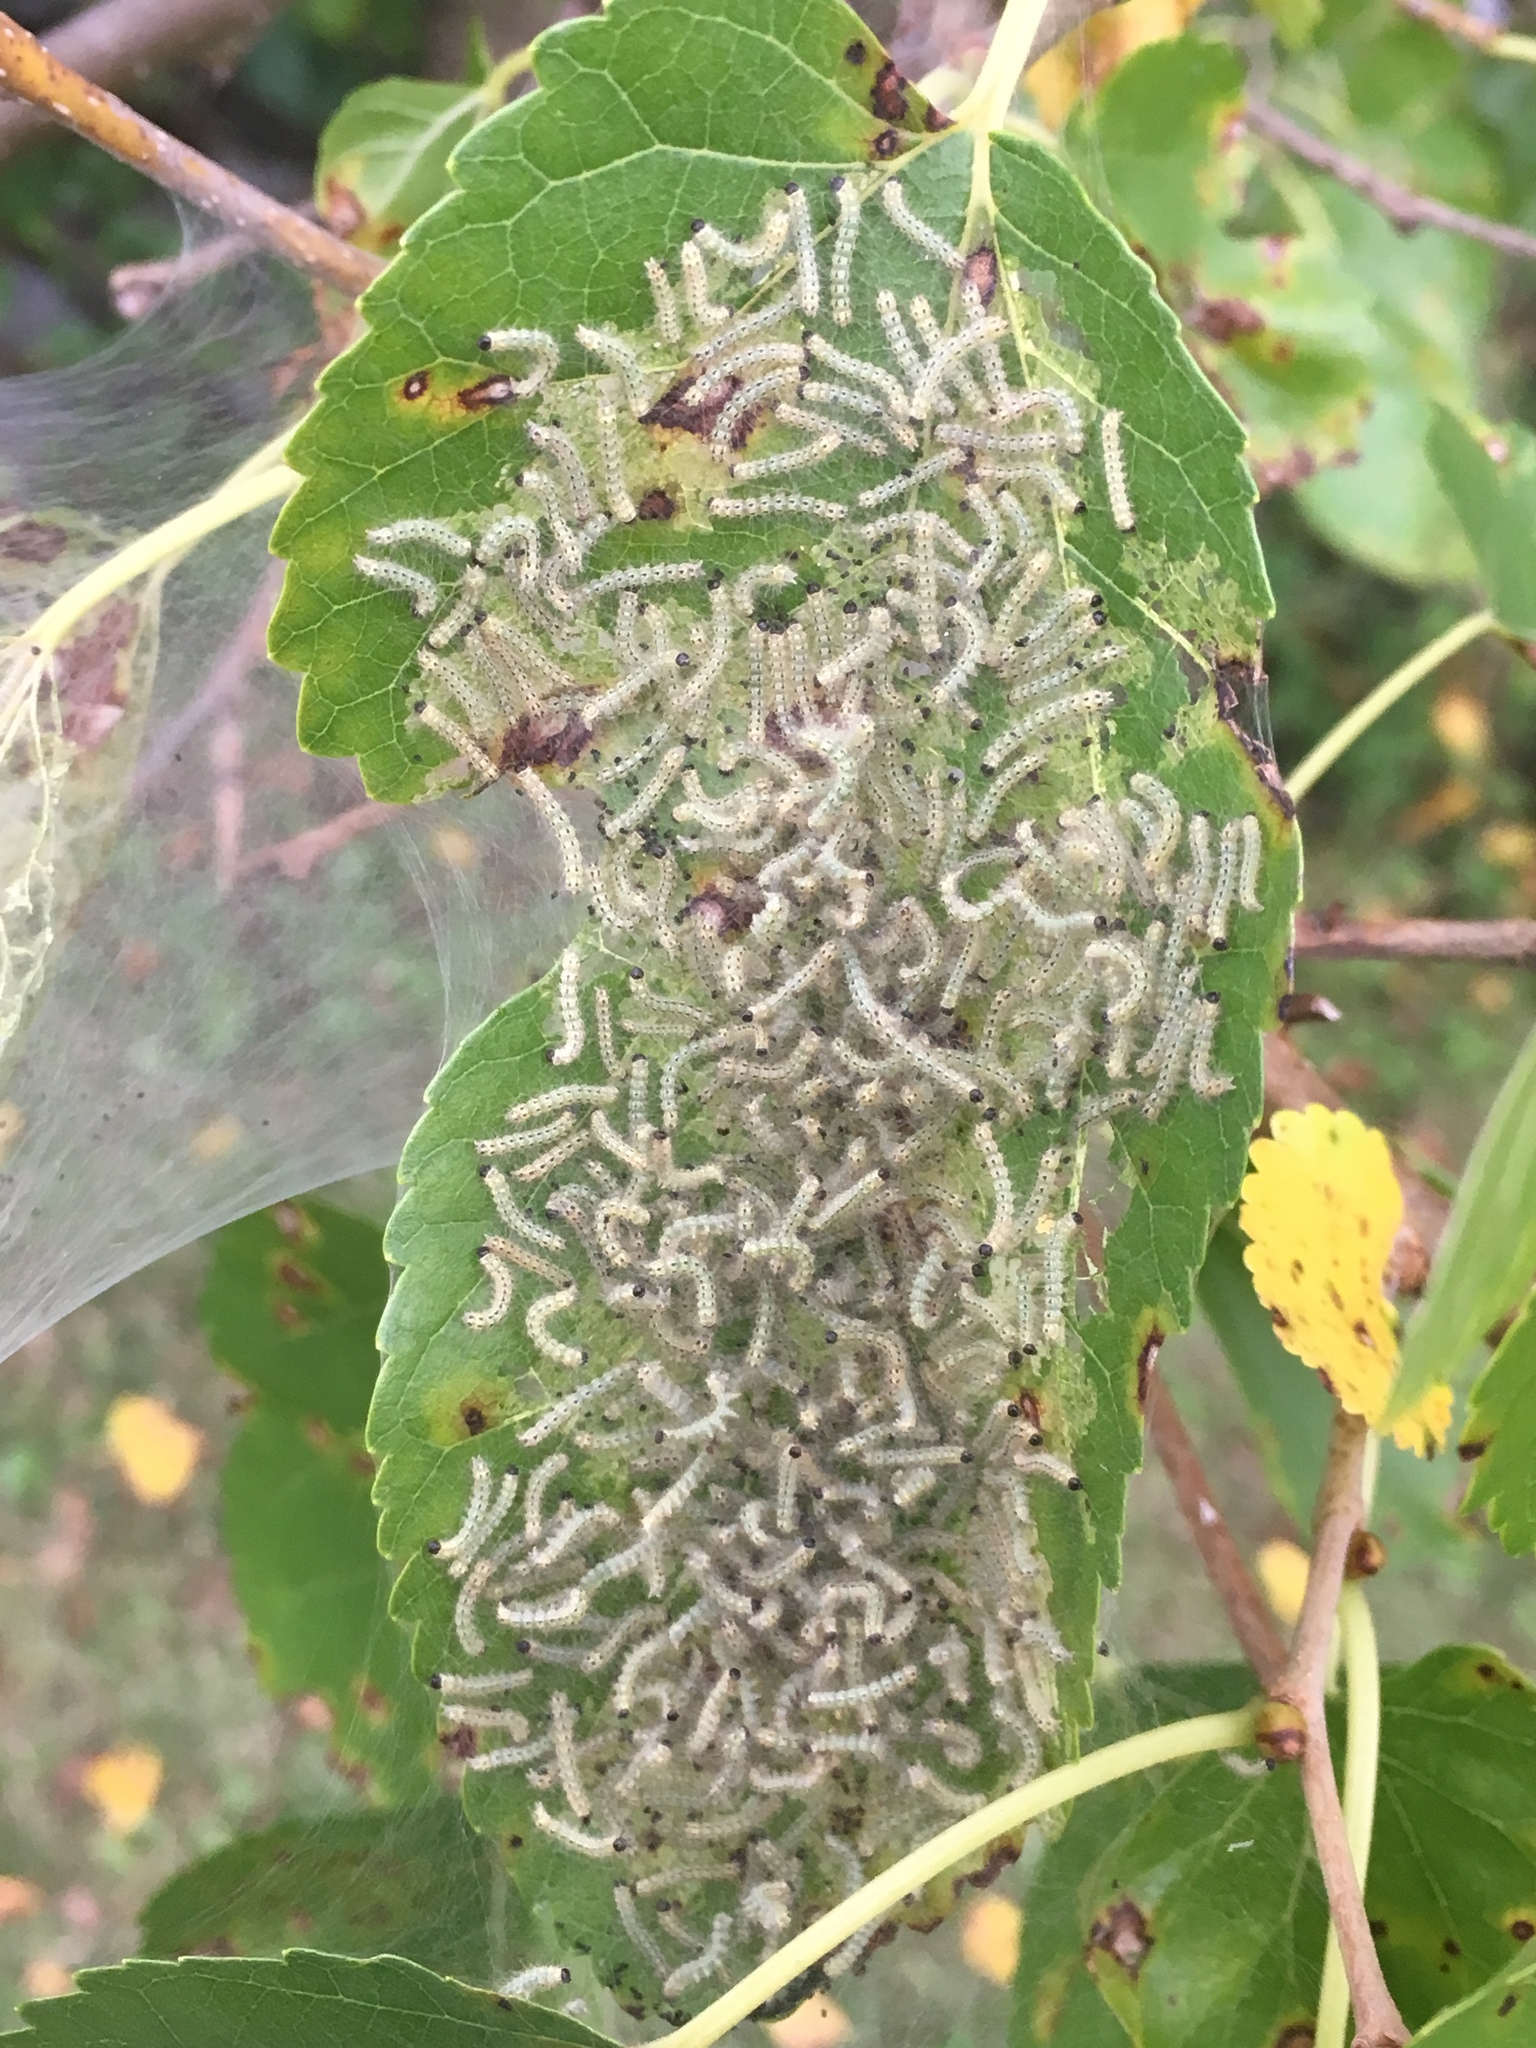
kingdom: Animalia
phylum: Arthropoda
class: Insecta
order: Lepidoptera
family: Erebidae
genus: Hyphantria
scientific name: Hyphantria cunea
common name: American white moth
